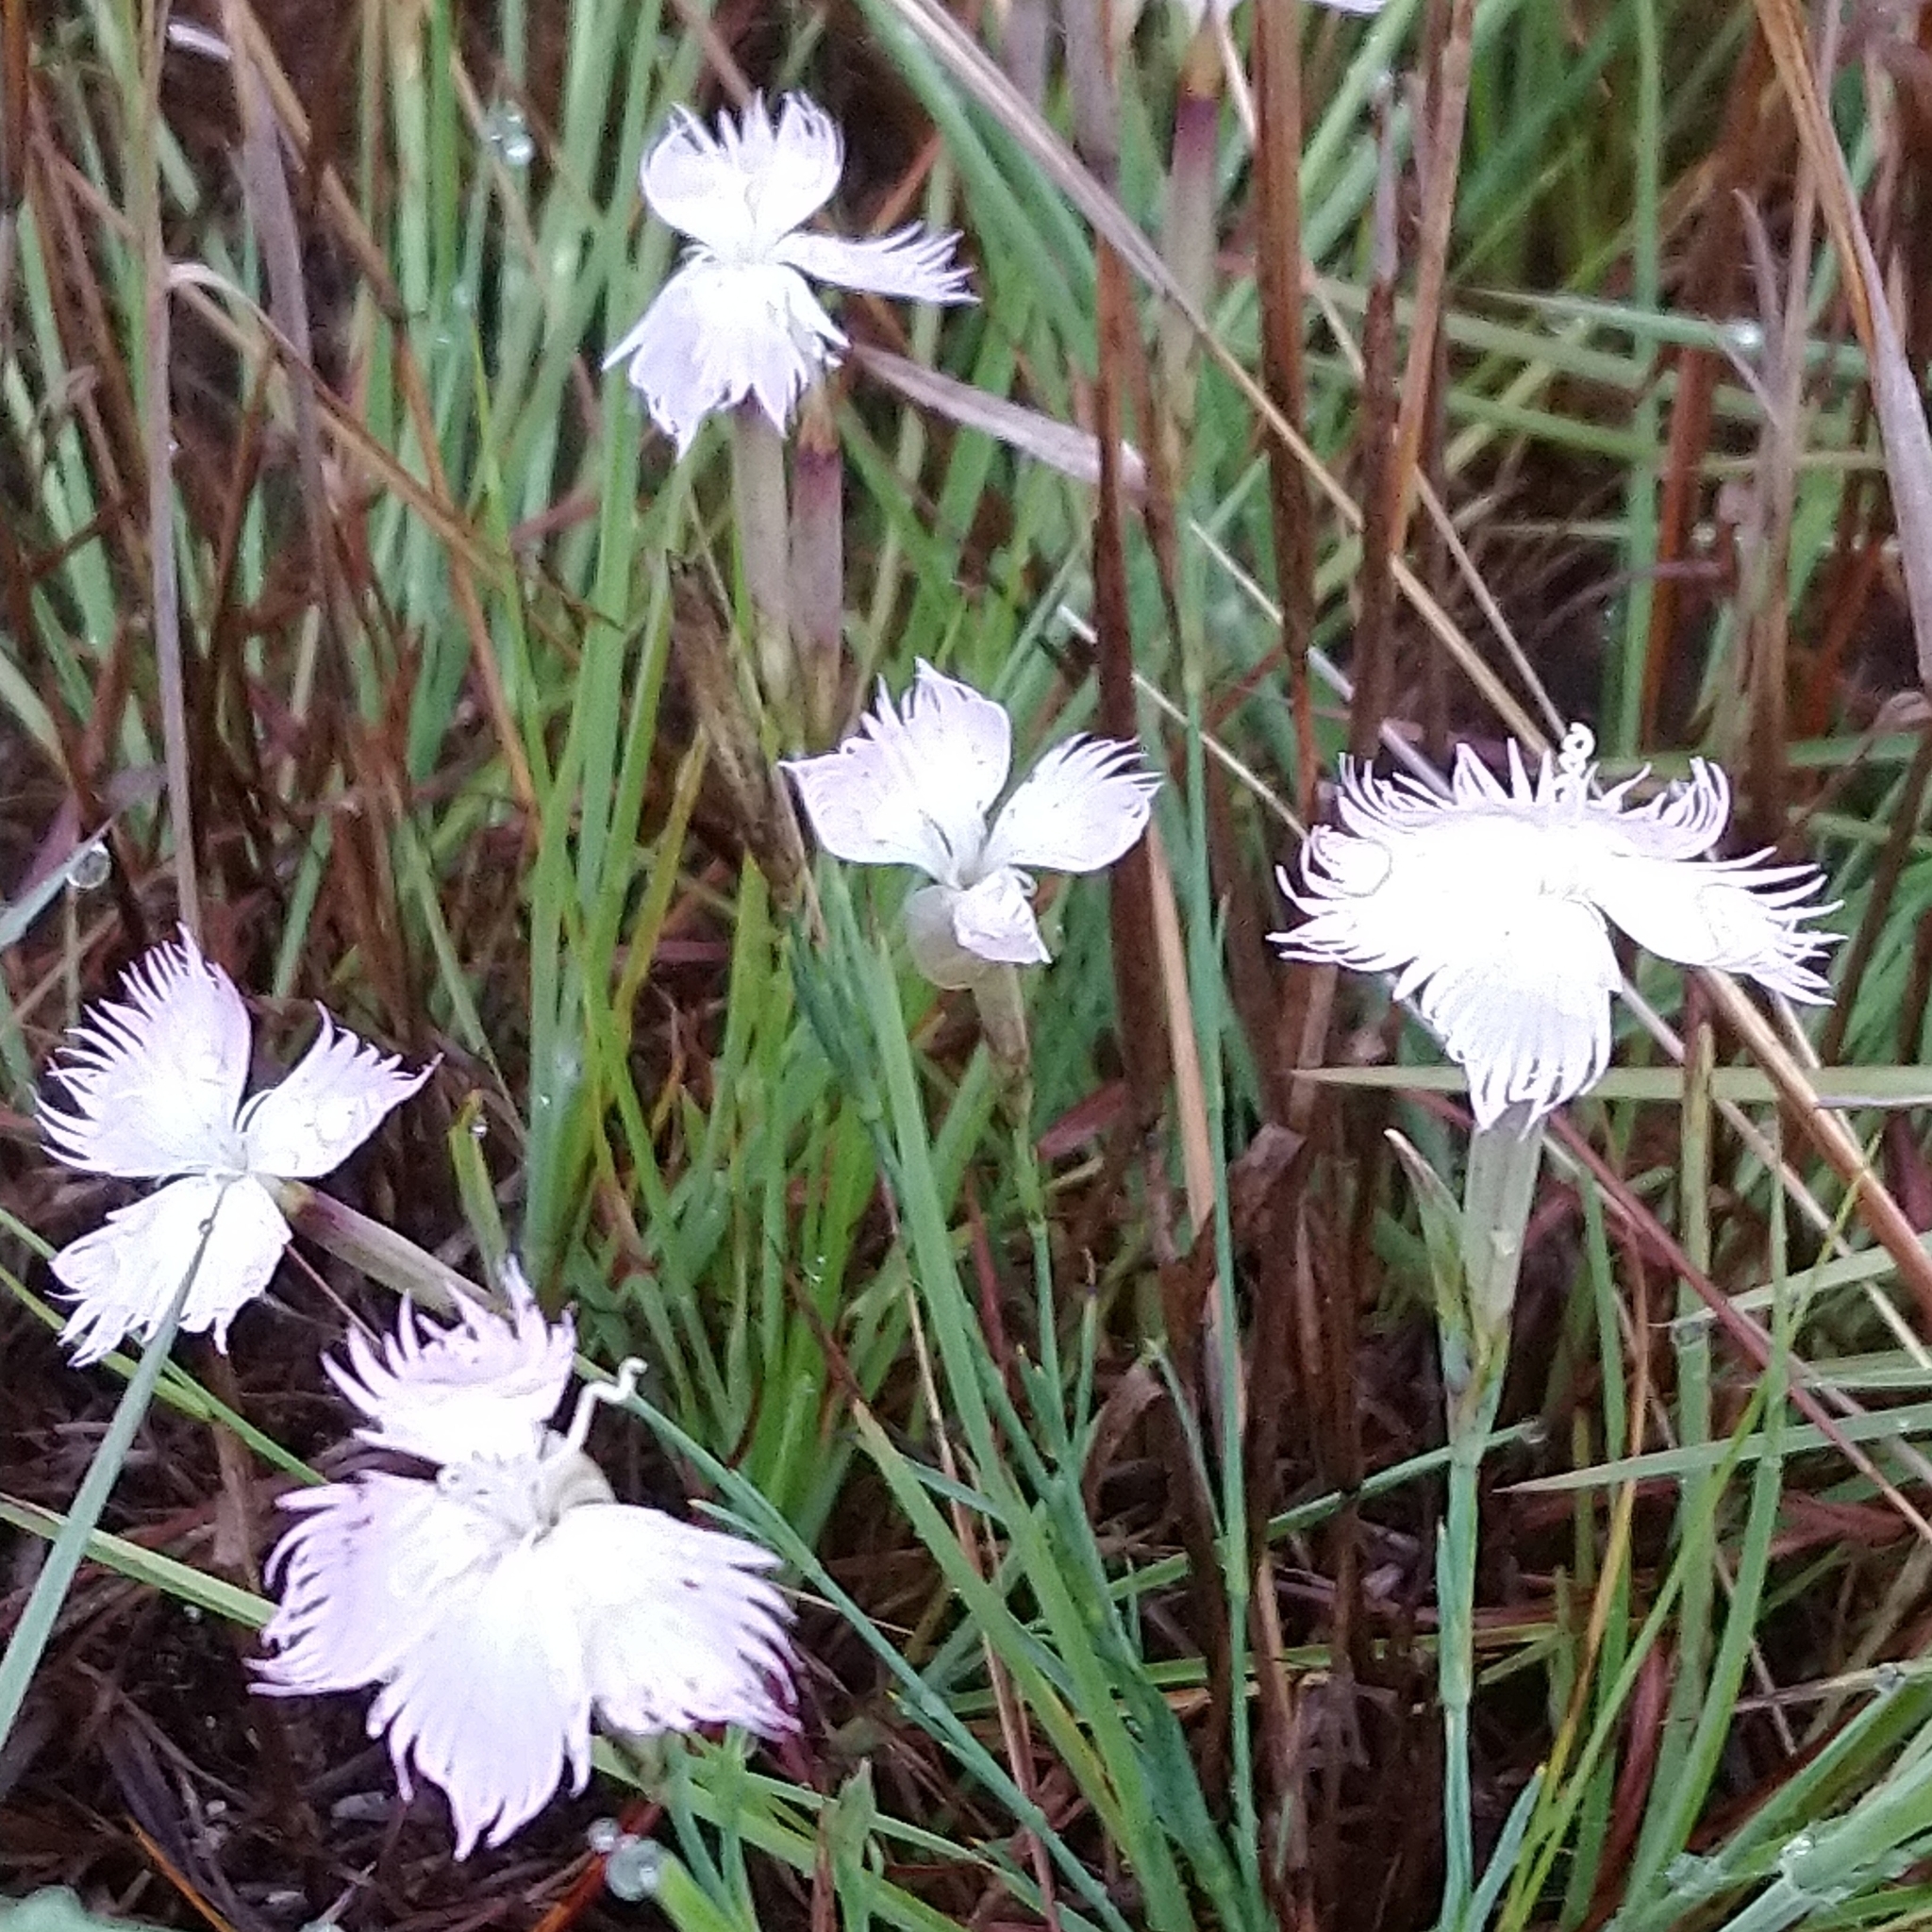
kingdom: Plantae
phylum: Tracheophyta
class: Magnoliopsida
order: Caryophyllales
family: Caryophyllaceae
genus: Dianthus
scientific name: Dianthus mooiensis
